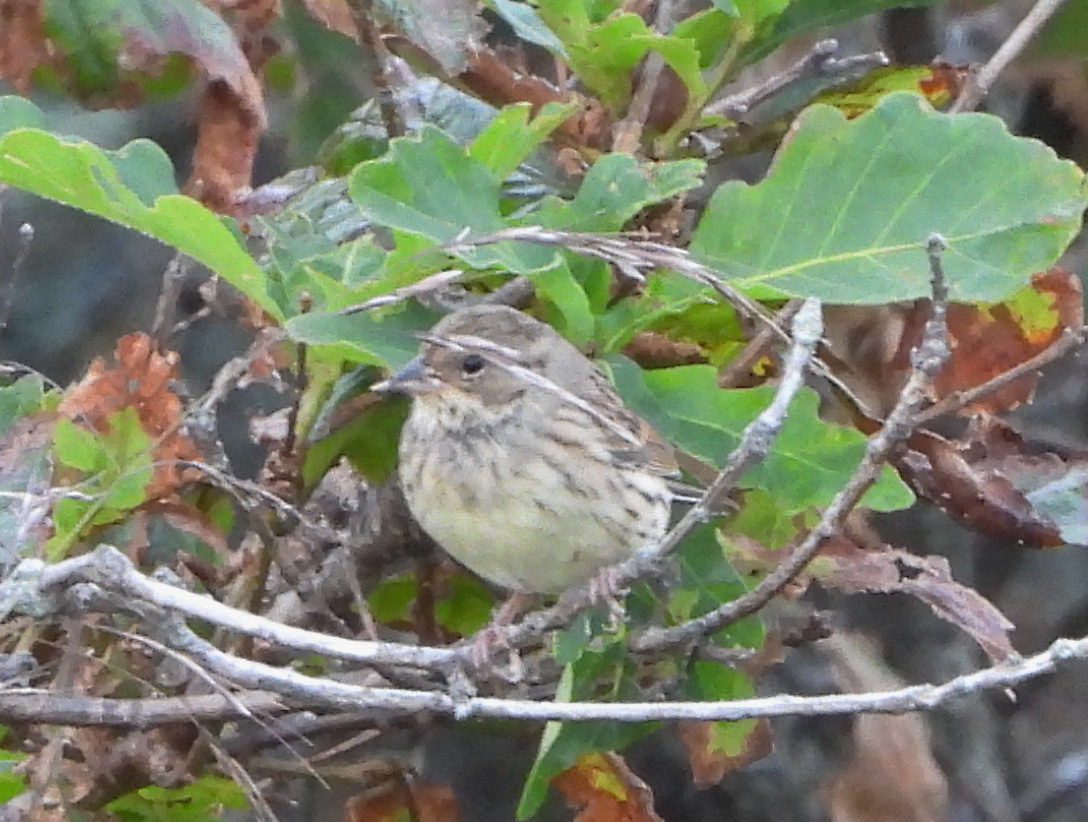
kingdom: Animalia
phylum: Chordata
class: Aves
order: Passeriformes
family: Emberizidae
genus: Emberiza
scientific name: Emberiza spodocephala
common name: Black-faced bunting
